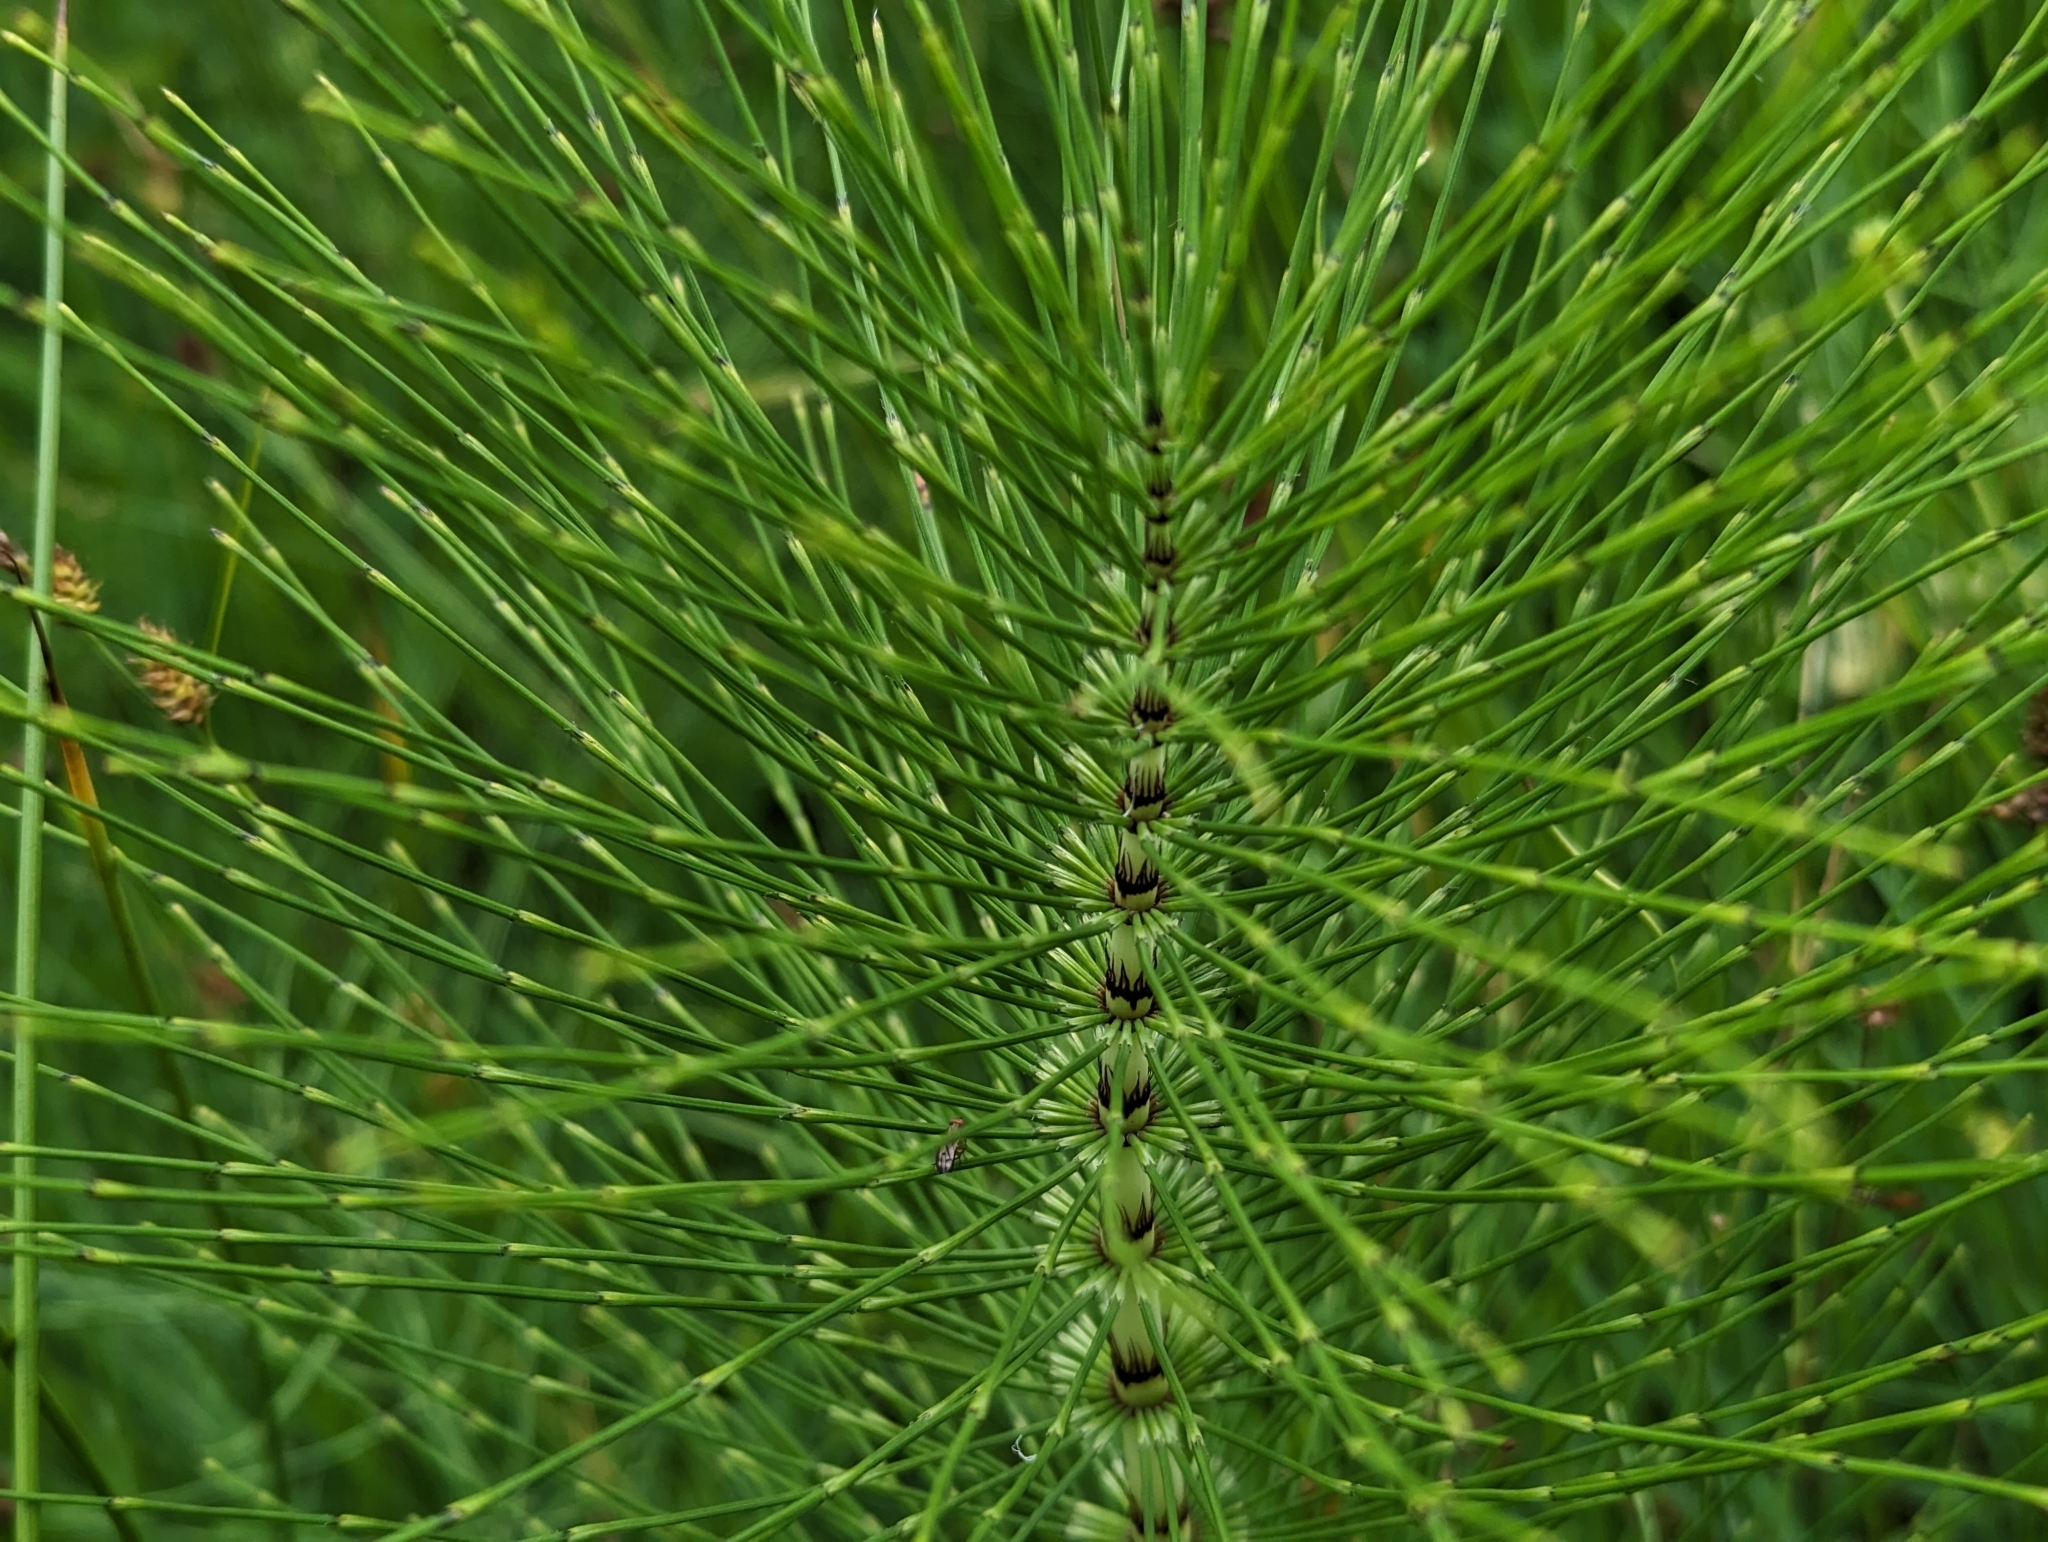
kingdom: Plantae
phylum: Tracheophyta
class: Polypodiopsida
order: Equisetales
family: Equisetaceae
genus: Equisetum
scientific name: Equisetum telmateia
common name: Great horsetail
